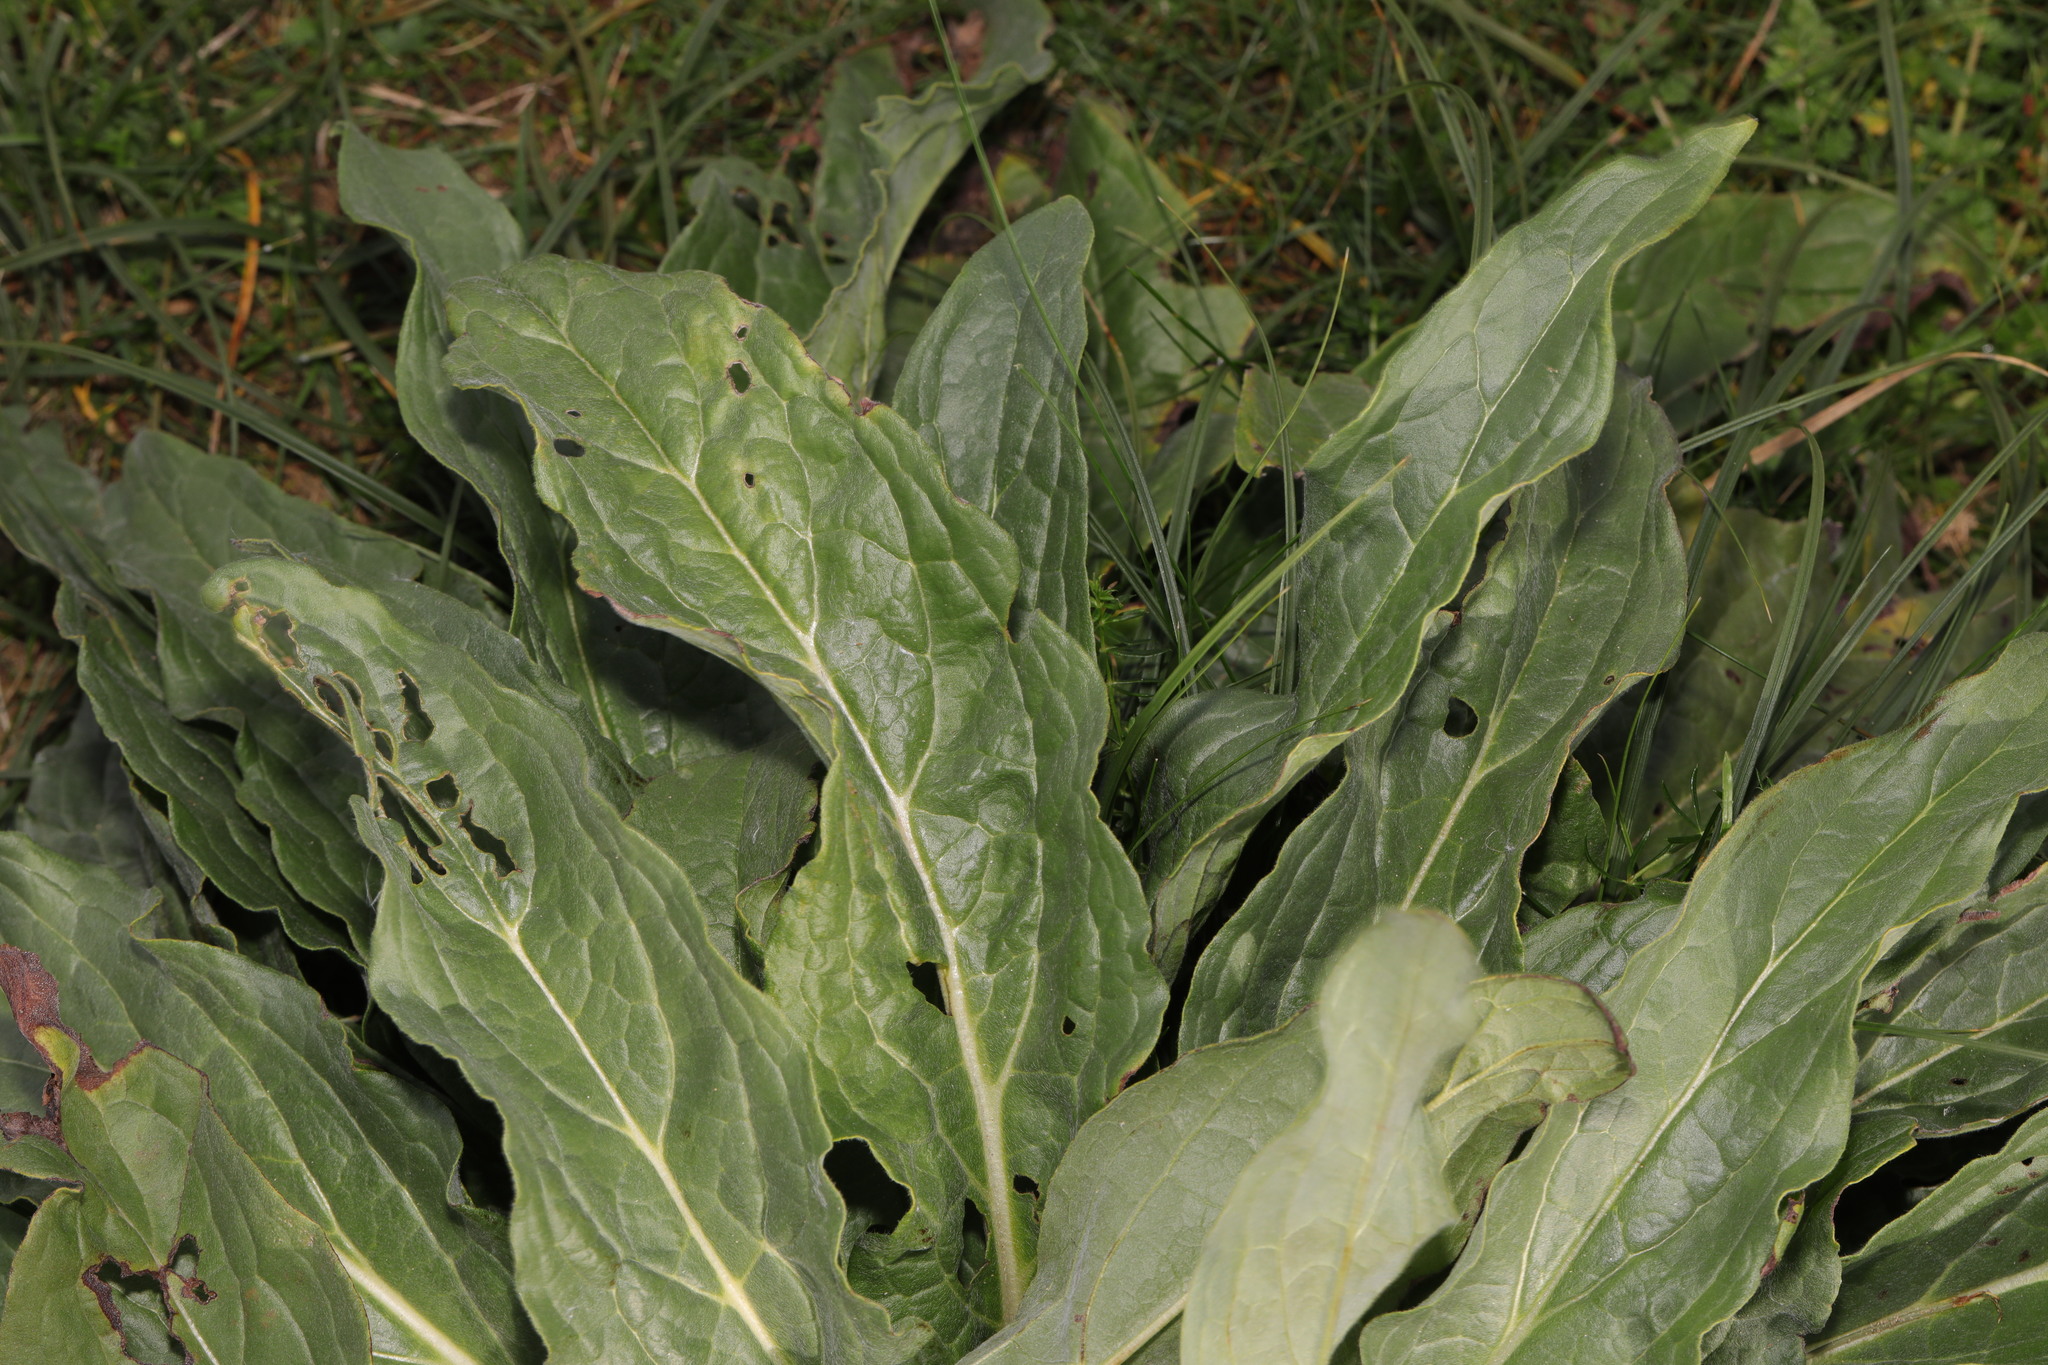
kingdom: Plantae
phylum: Tracheophyta
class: Magnoliopsida
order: Boraginales
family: Boraginaceae
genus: Cynoglossum
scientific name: Cynoglossum officinale
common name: Hound's-tongue
